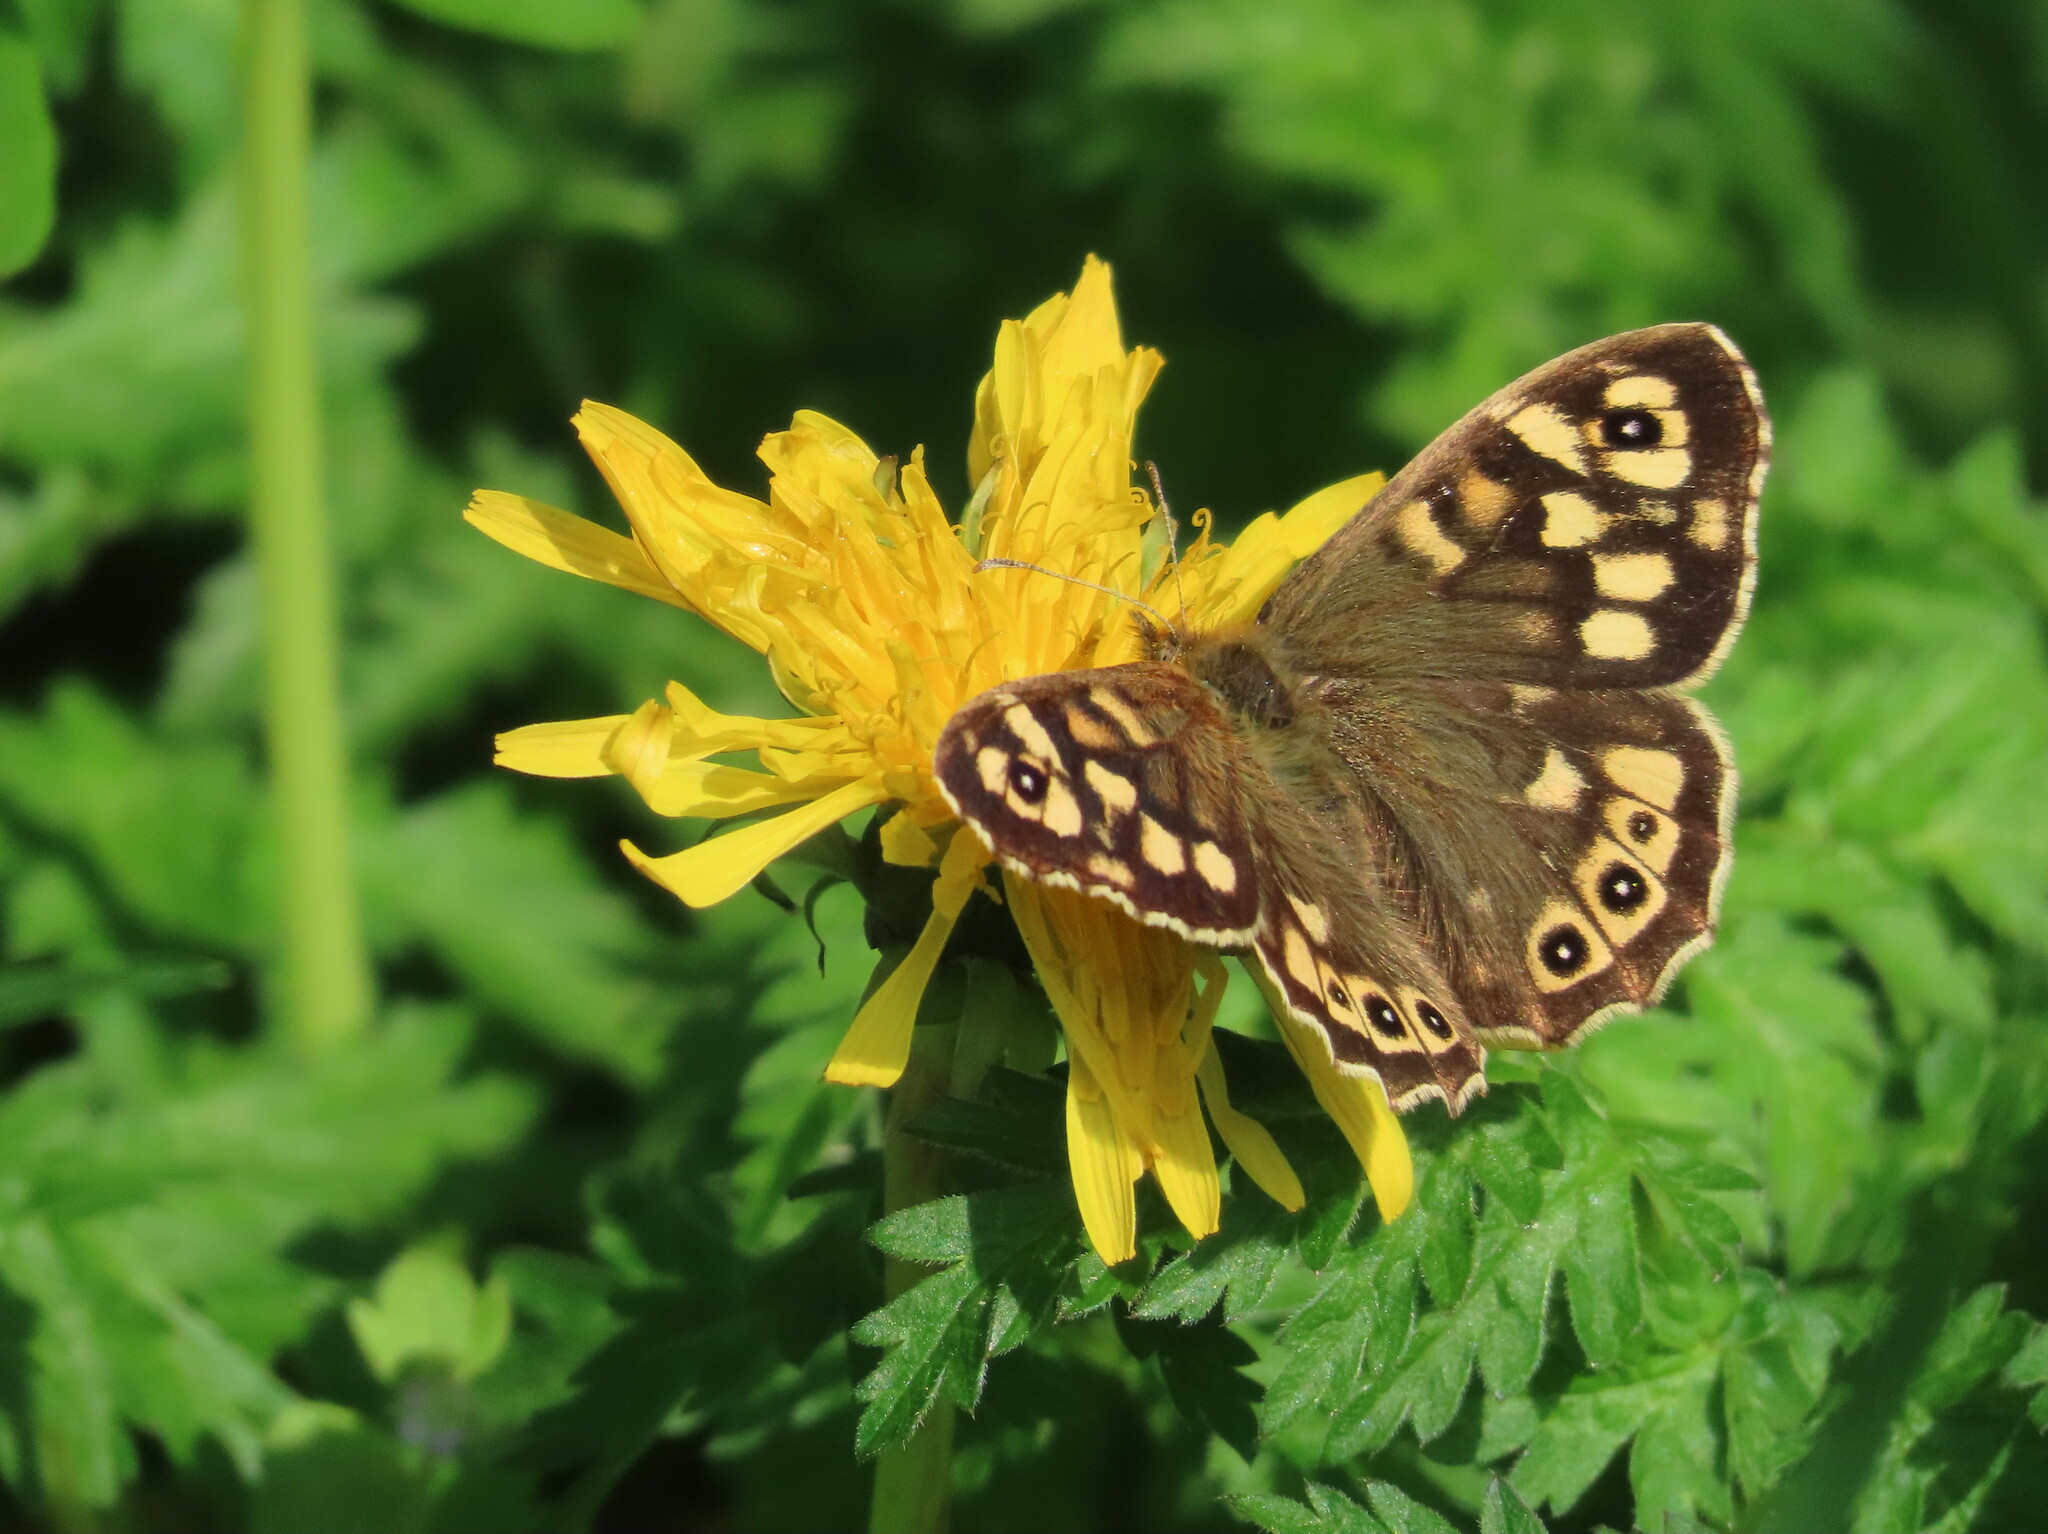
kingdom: Animalia
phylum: Arthropoda
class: Insecta
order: Lepidoptera
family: Nymphalidae
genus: Pararge
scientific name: Pararge aegeria
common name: Speckled wood
